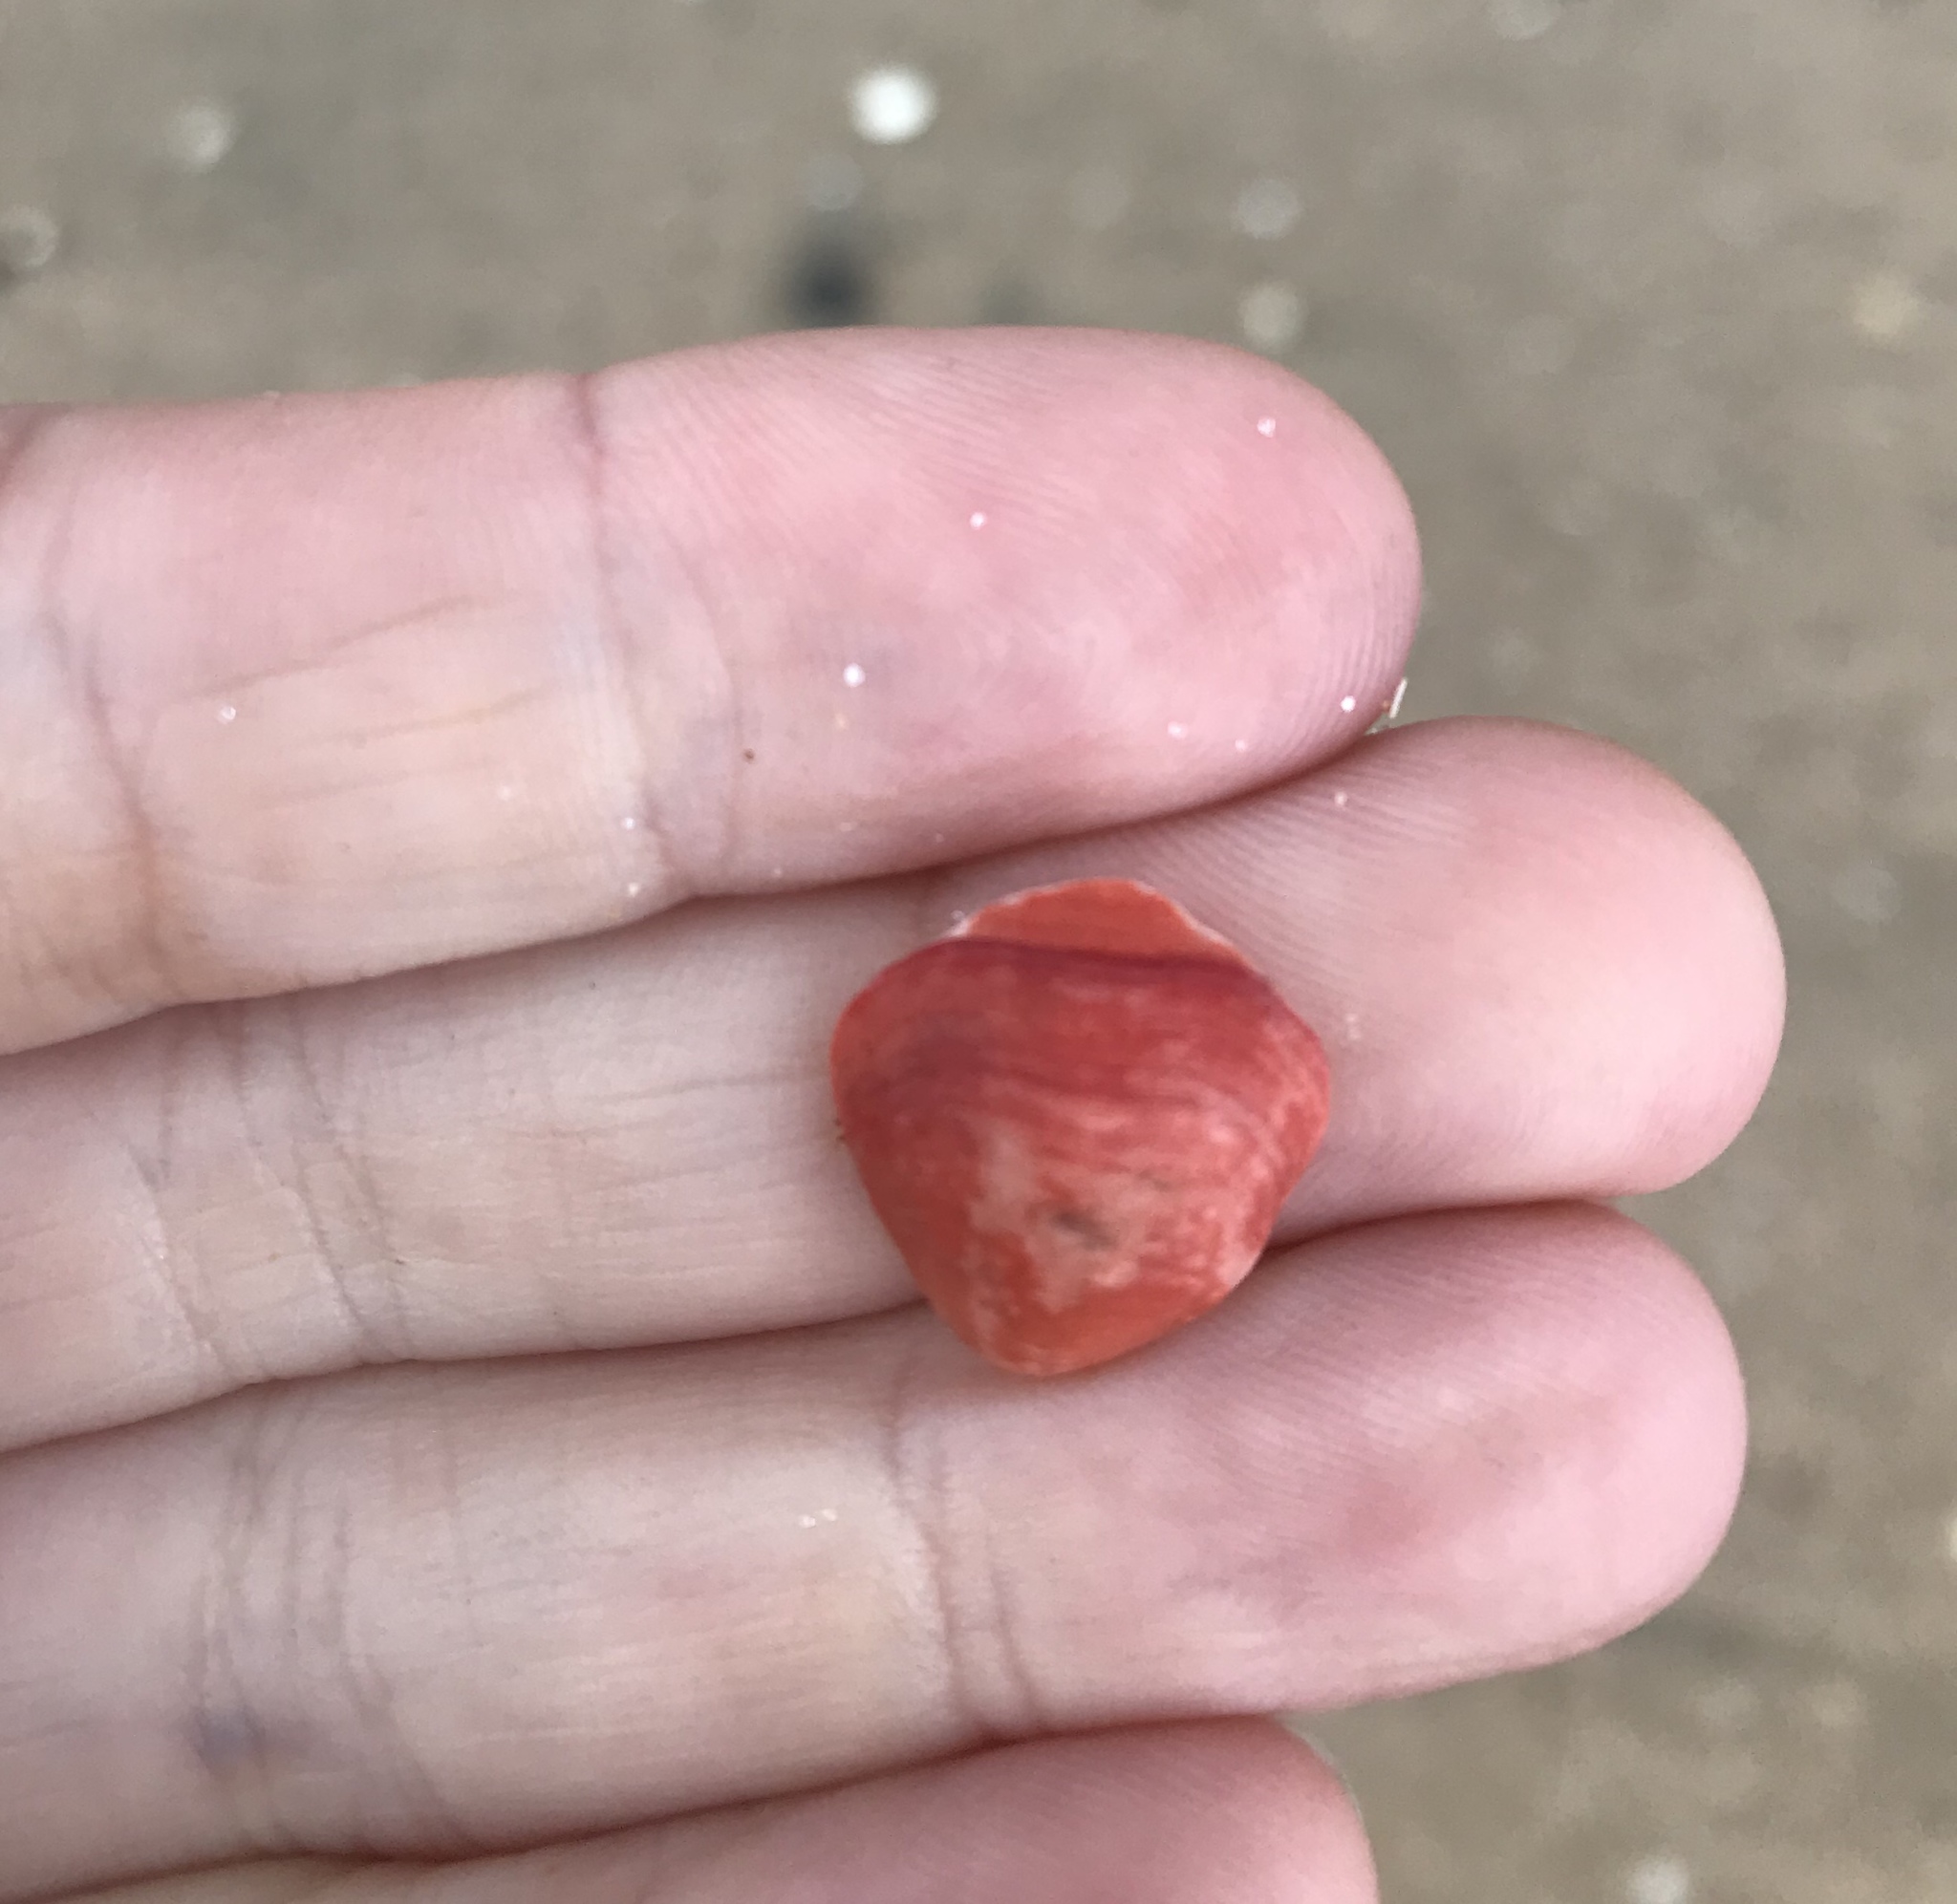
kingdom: Animalia
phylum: Brachiopoda
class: Rhynchonellata
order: Terebratulida
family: Terebratellidae
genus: Calloria
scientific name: Calloria inconspicua
